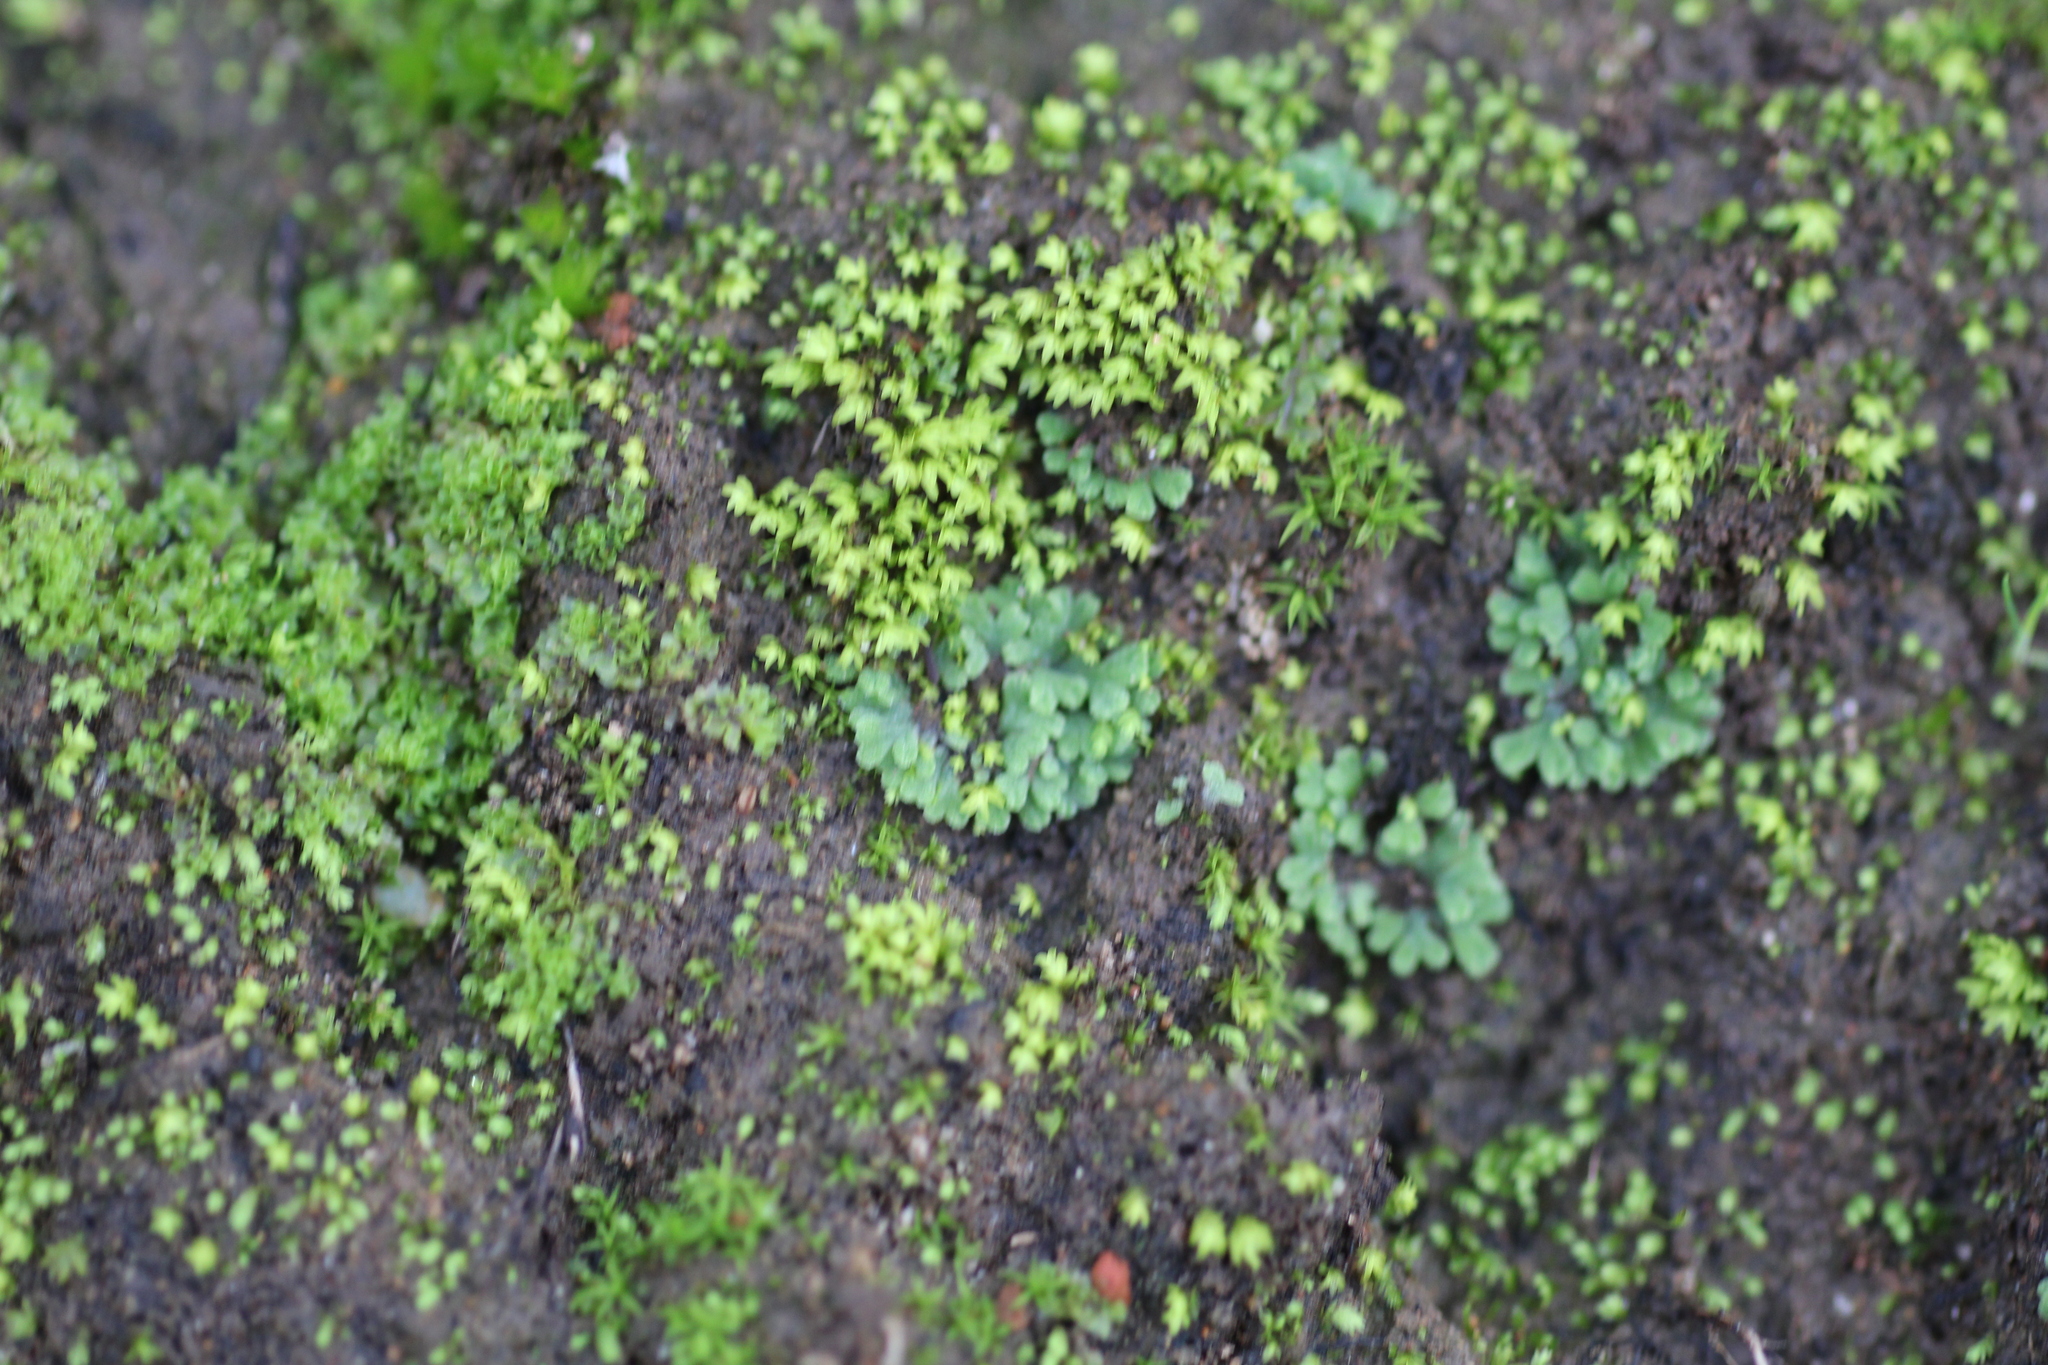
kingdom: Plantae
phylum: Marchantiophyta
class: Marchantiopsida
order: Marchantiales
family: Ricciaceae
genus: Riccia
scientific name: Riccia subbifurca
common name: Least crystalwort
